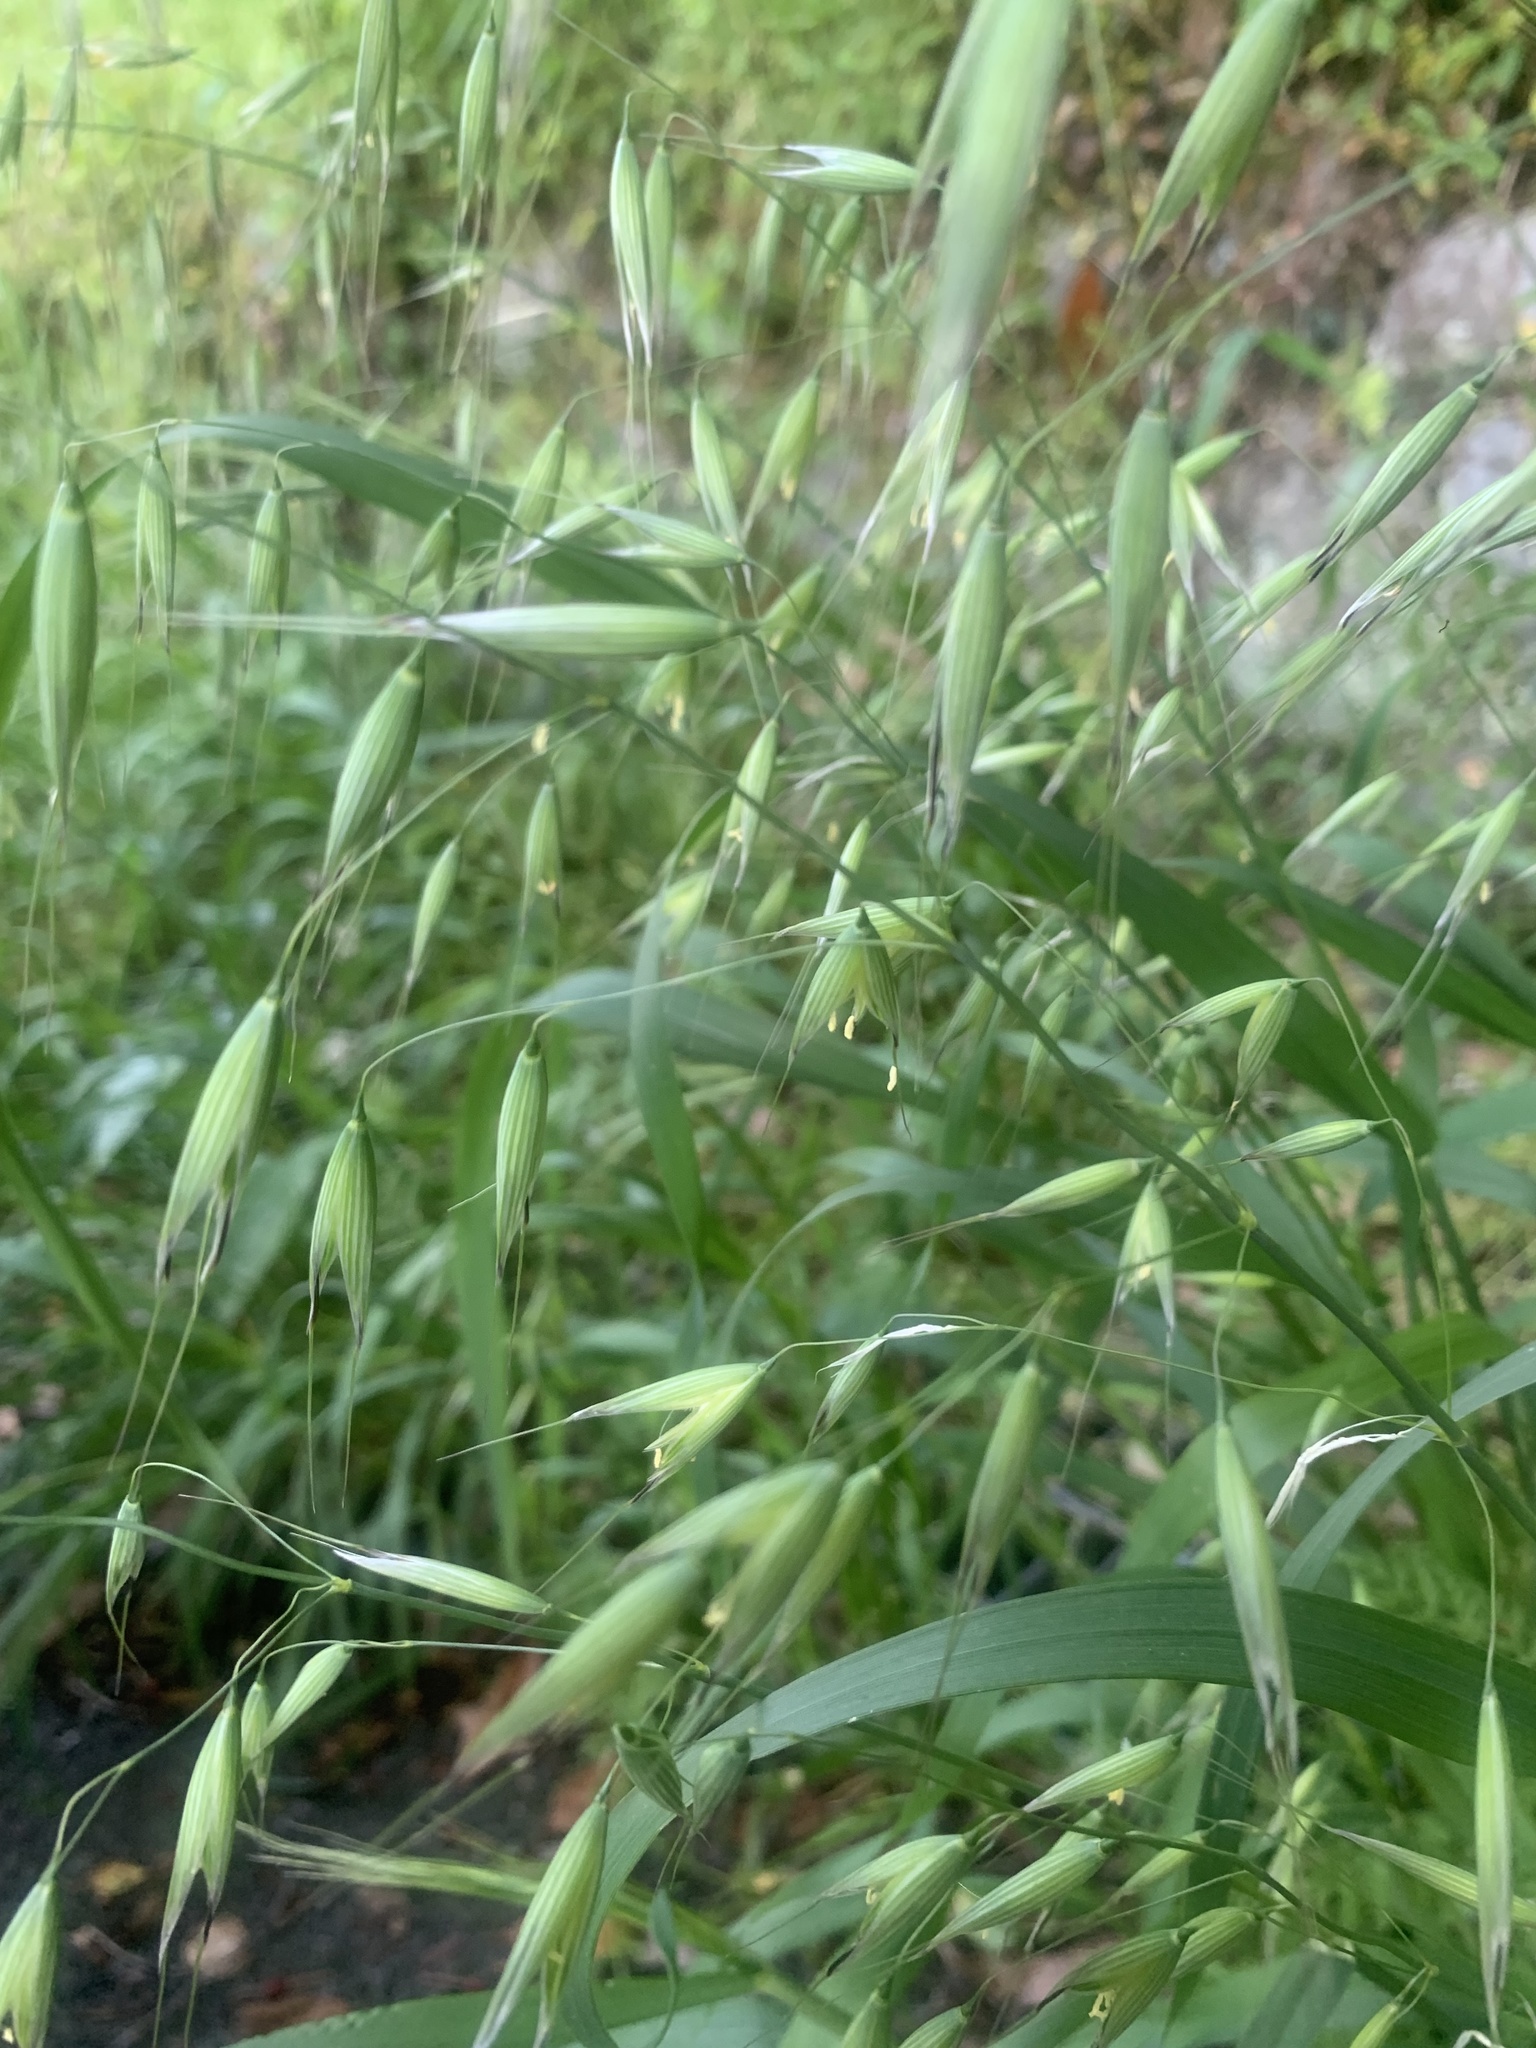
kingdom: Plantae
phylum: Tracheophyta
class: Liliopsida
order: Poales
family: Poaceae
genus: Avena
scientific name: Avena fatua
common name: Wild oat
